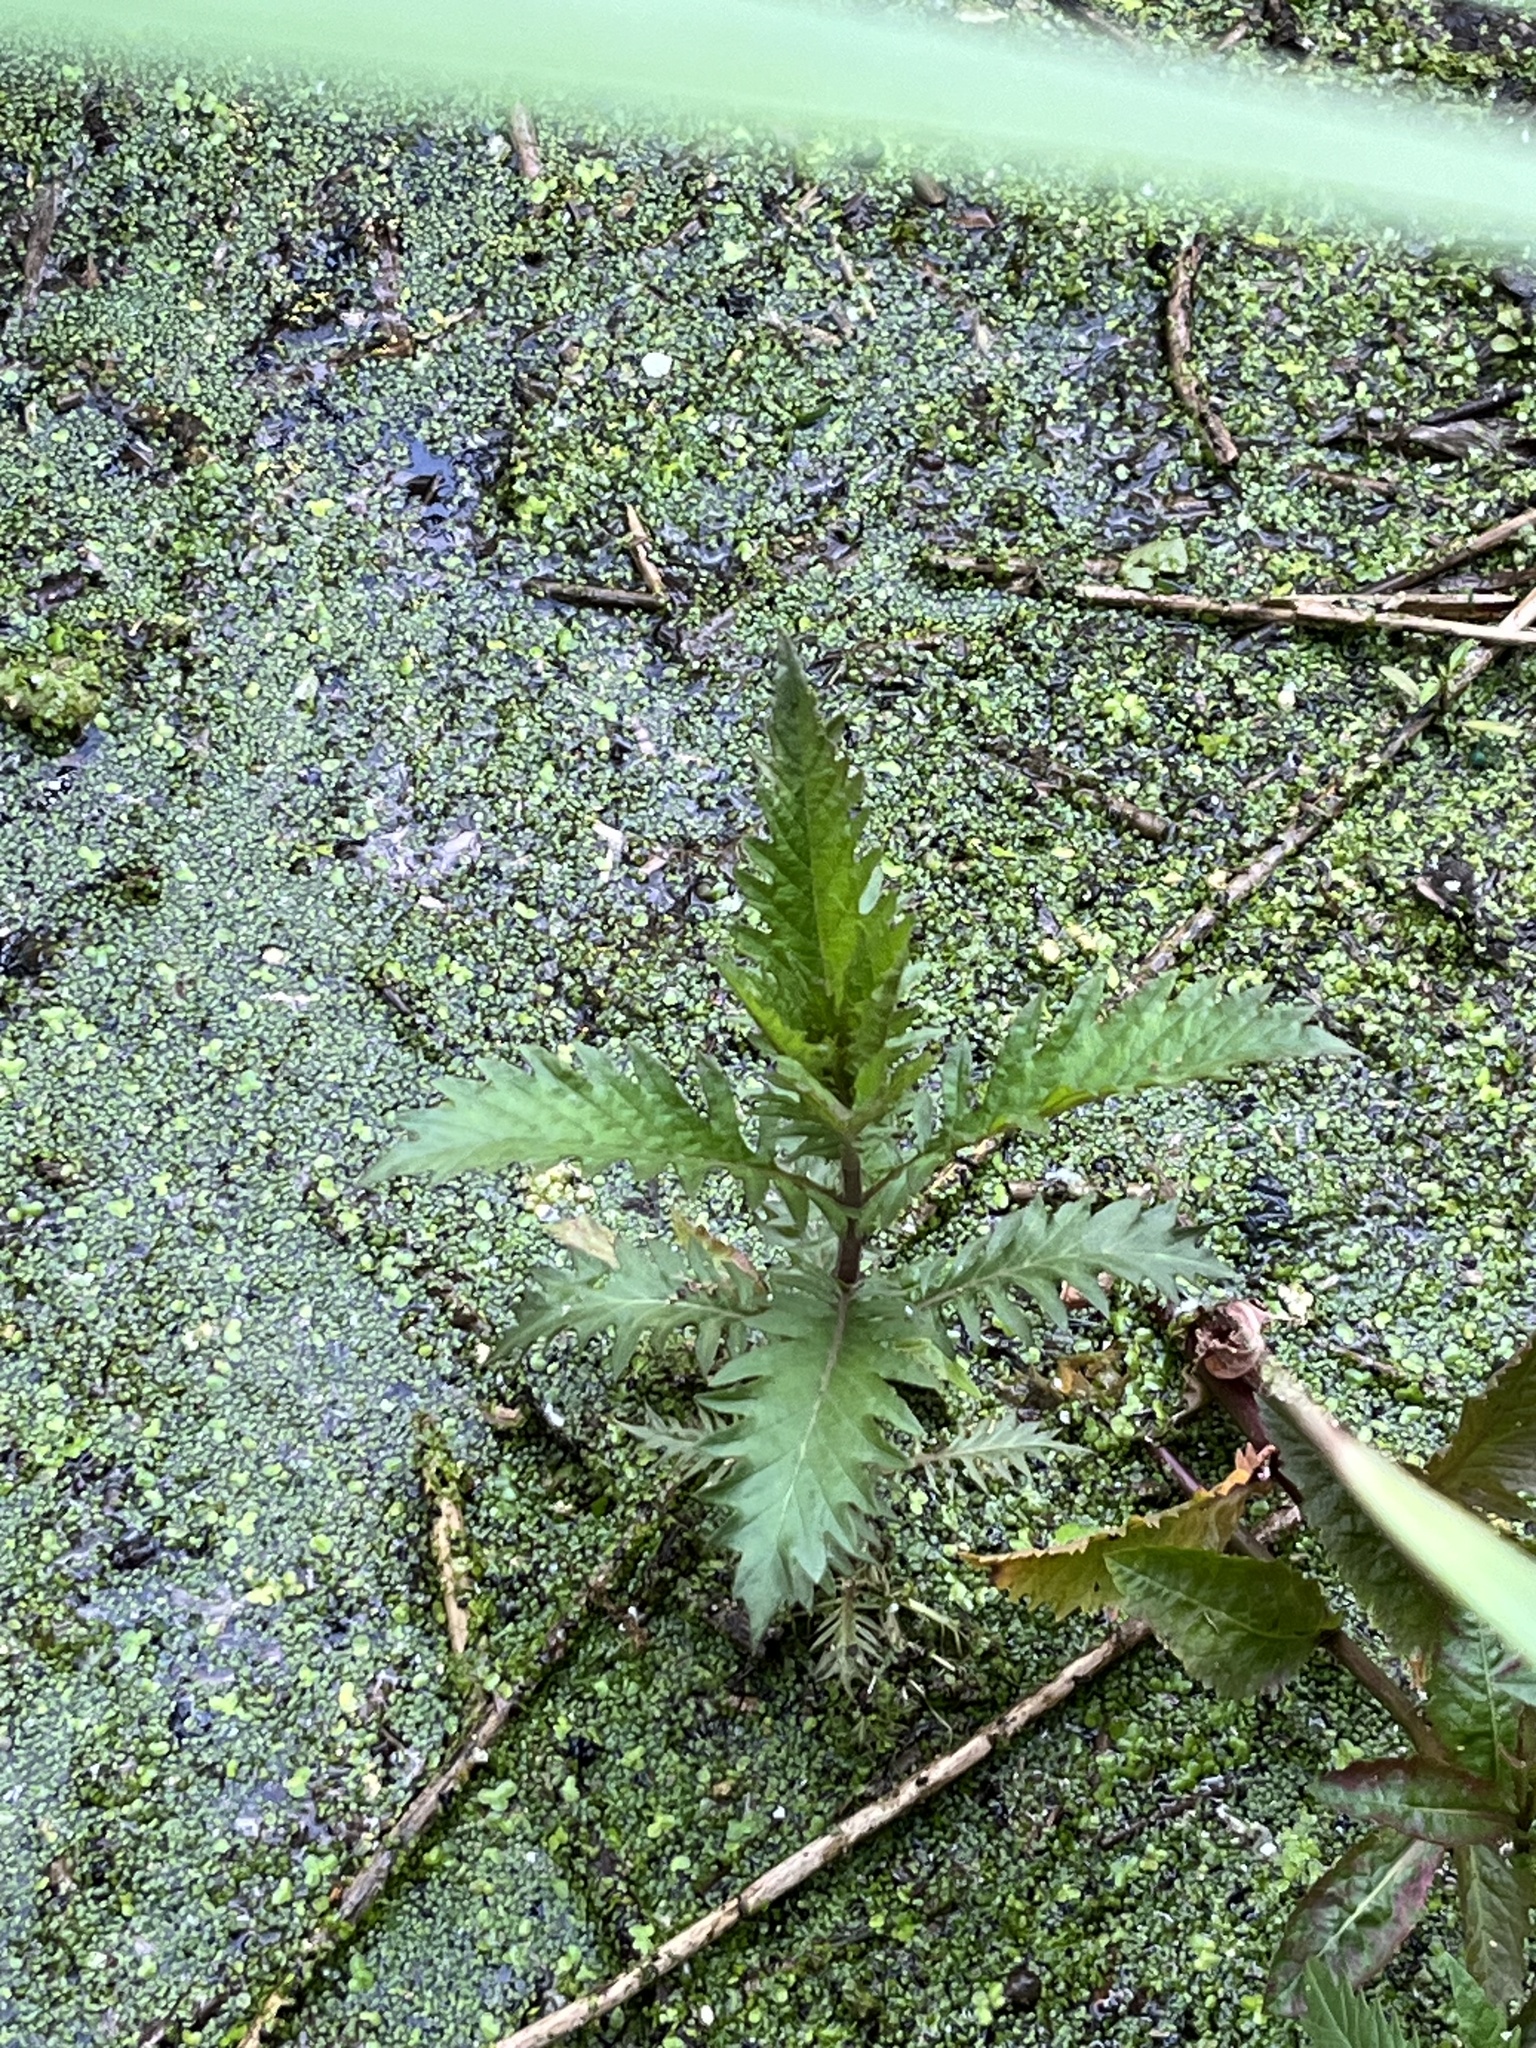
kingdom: Plantae
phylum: Tracheophyta
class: Magnoliopsida
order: Lamiales
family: Lamiaceae
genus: Lycopus
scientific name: Lycopus europaeus
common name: European bugleweed
